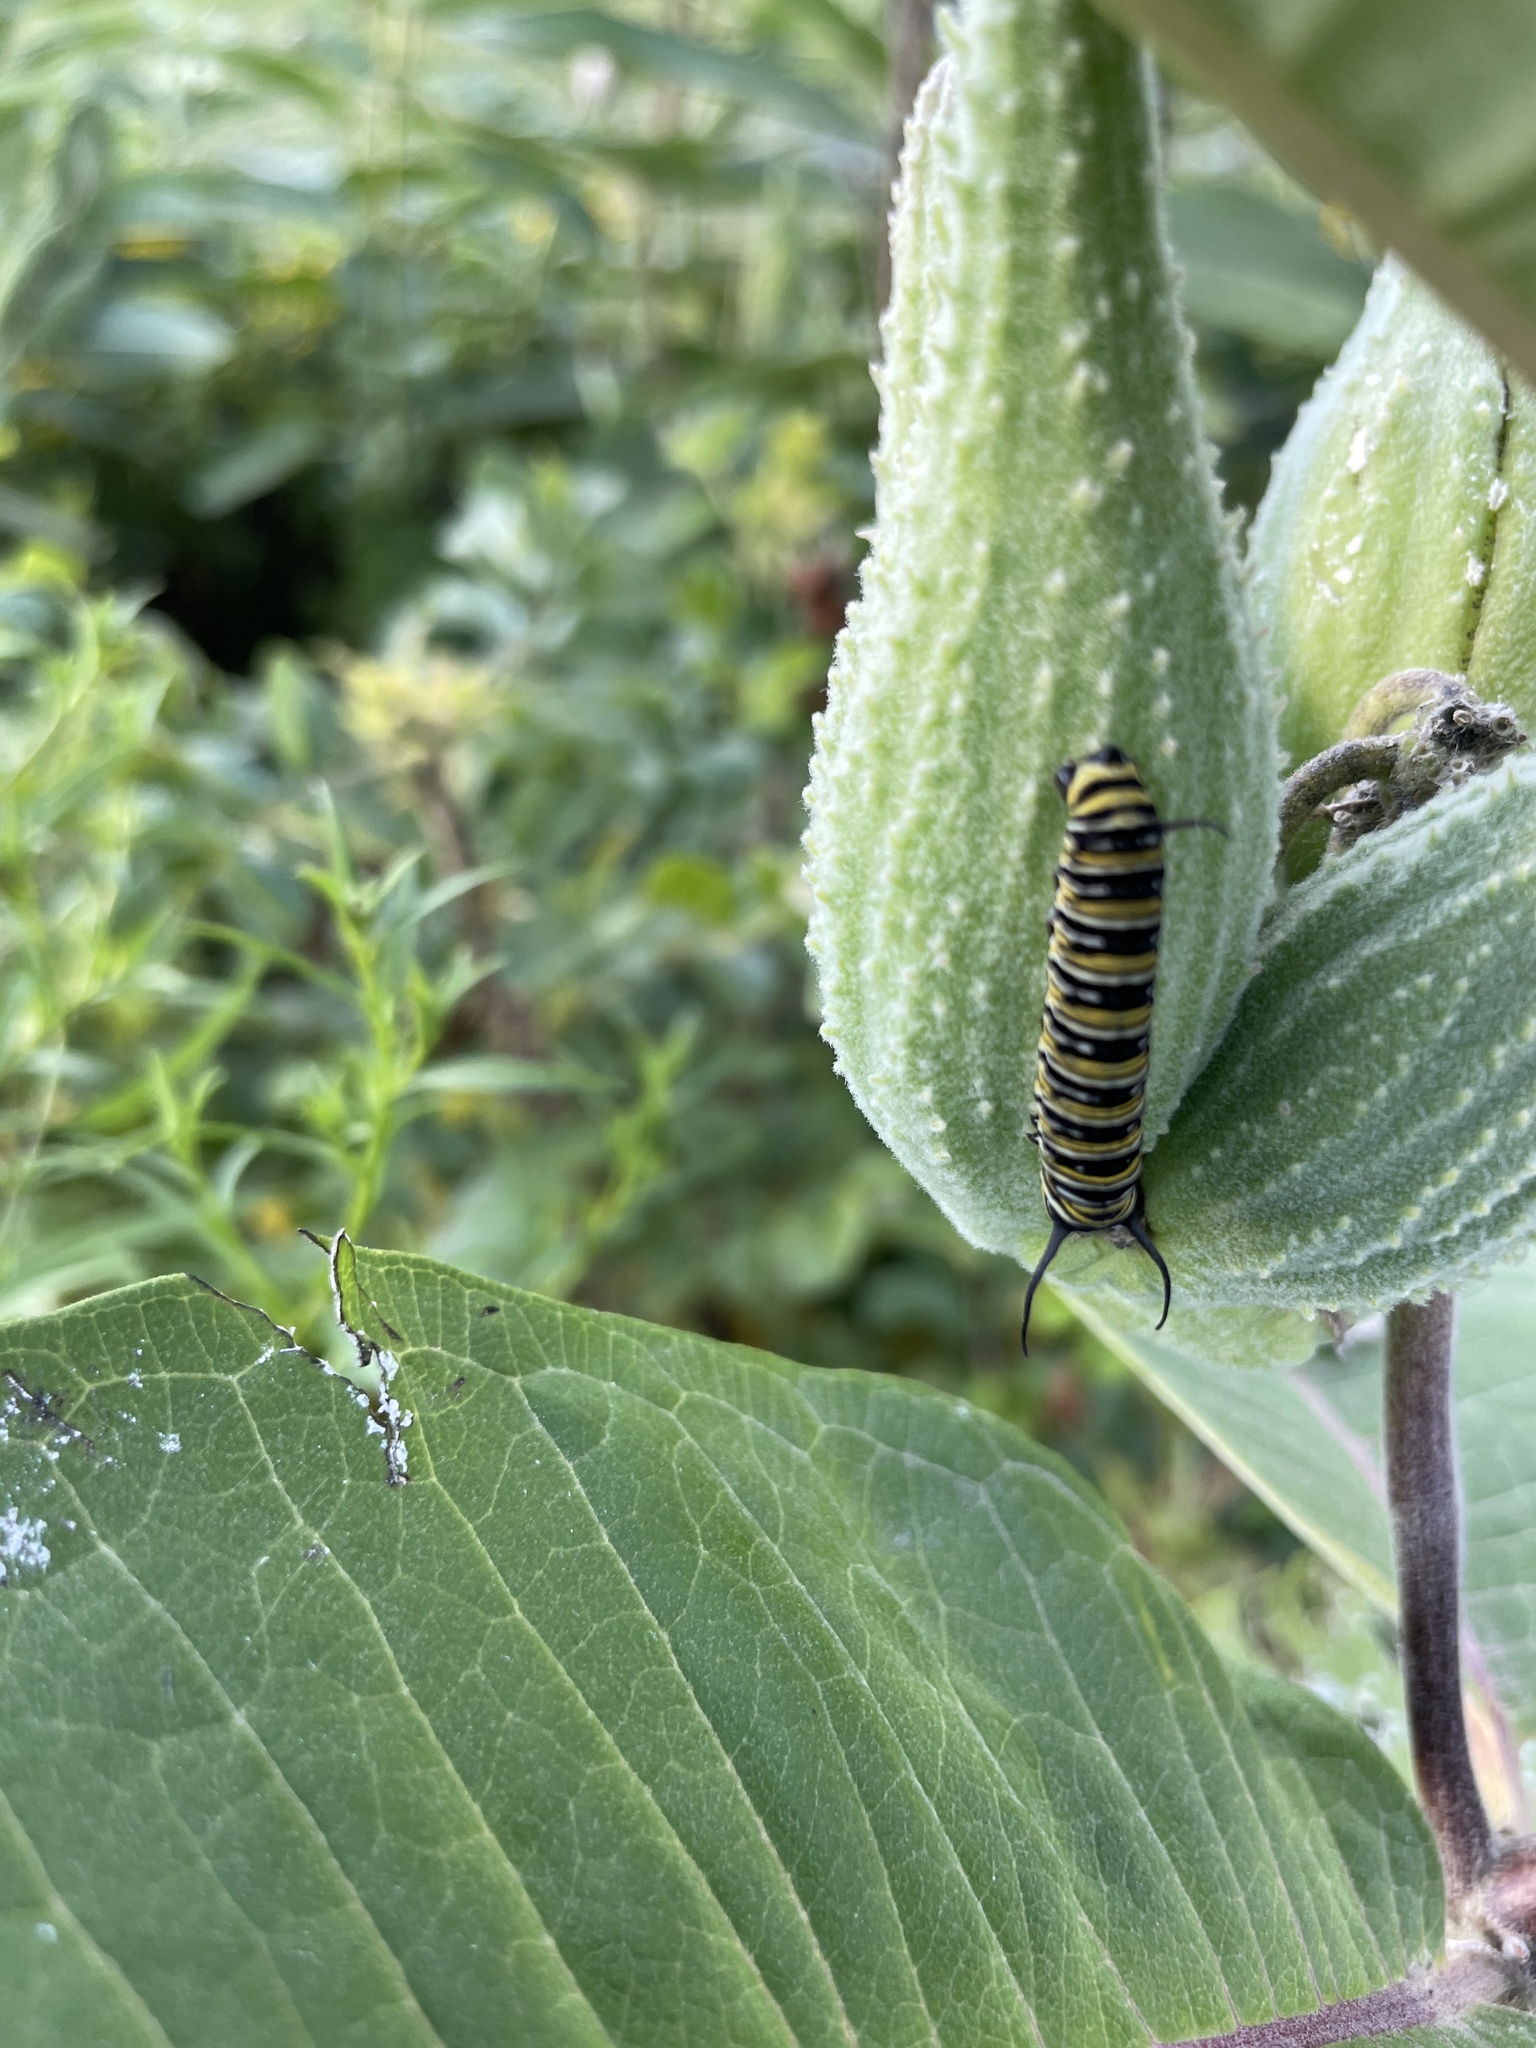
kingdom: Animalia
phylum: Arthropoda
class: Insecta
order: Lepidoptera
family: Nymphalidae
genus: Danaus
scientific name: Danaus plexippus
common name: Monarch
